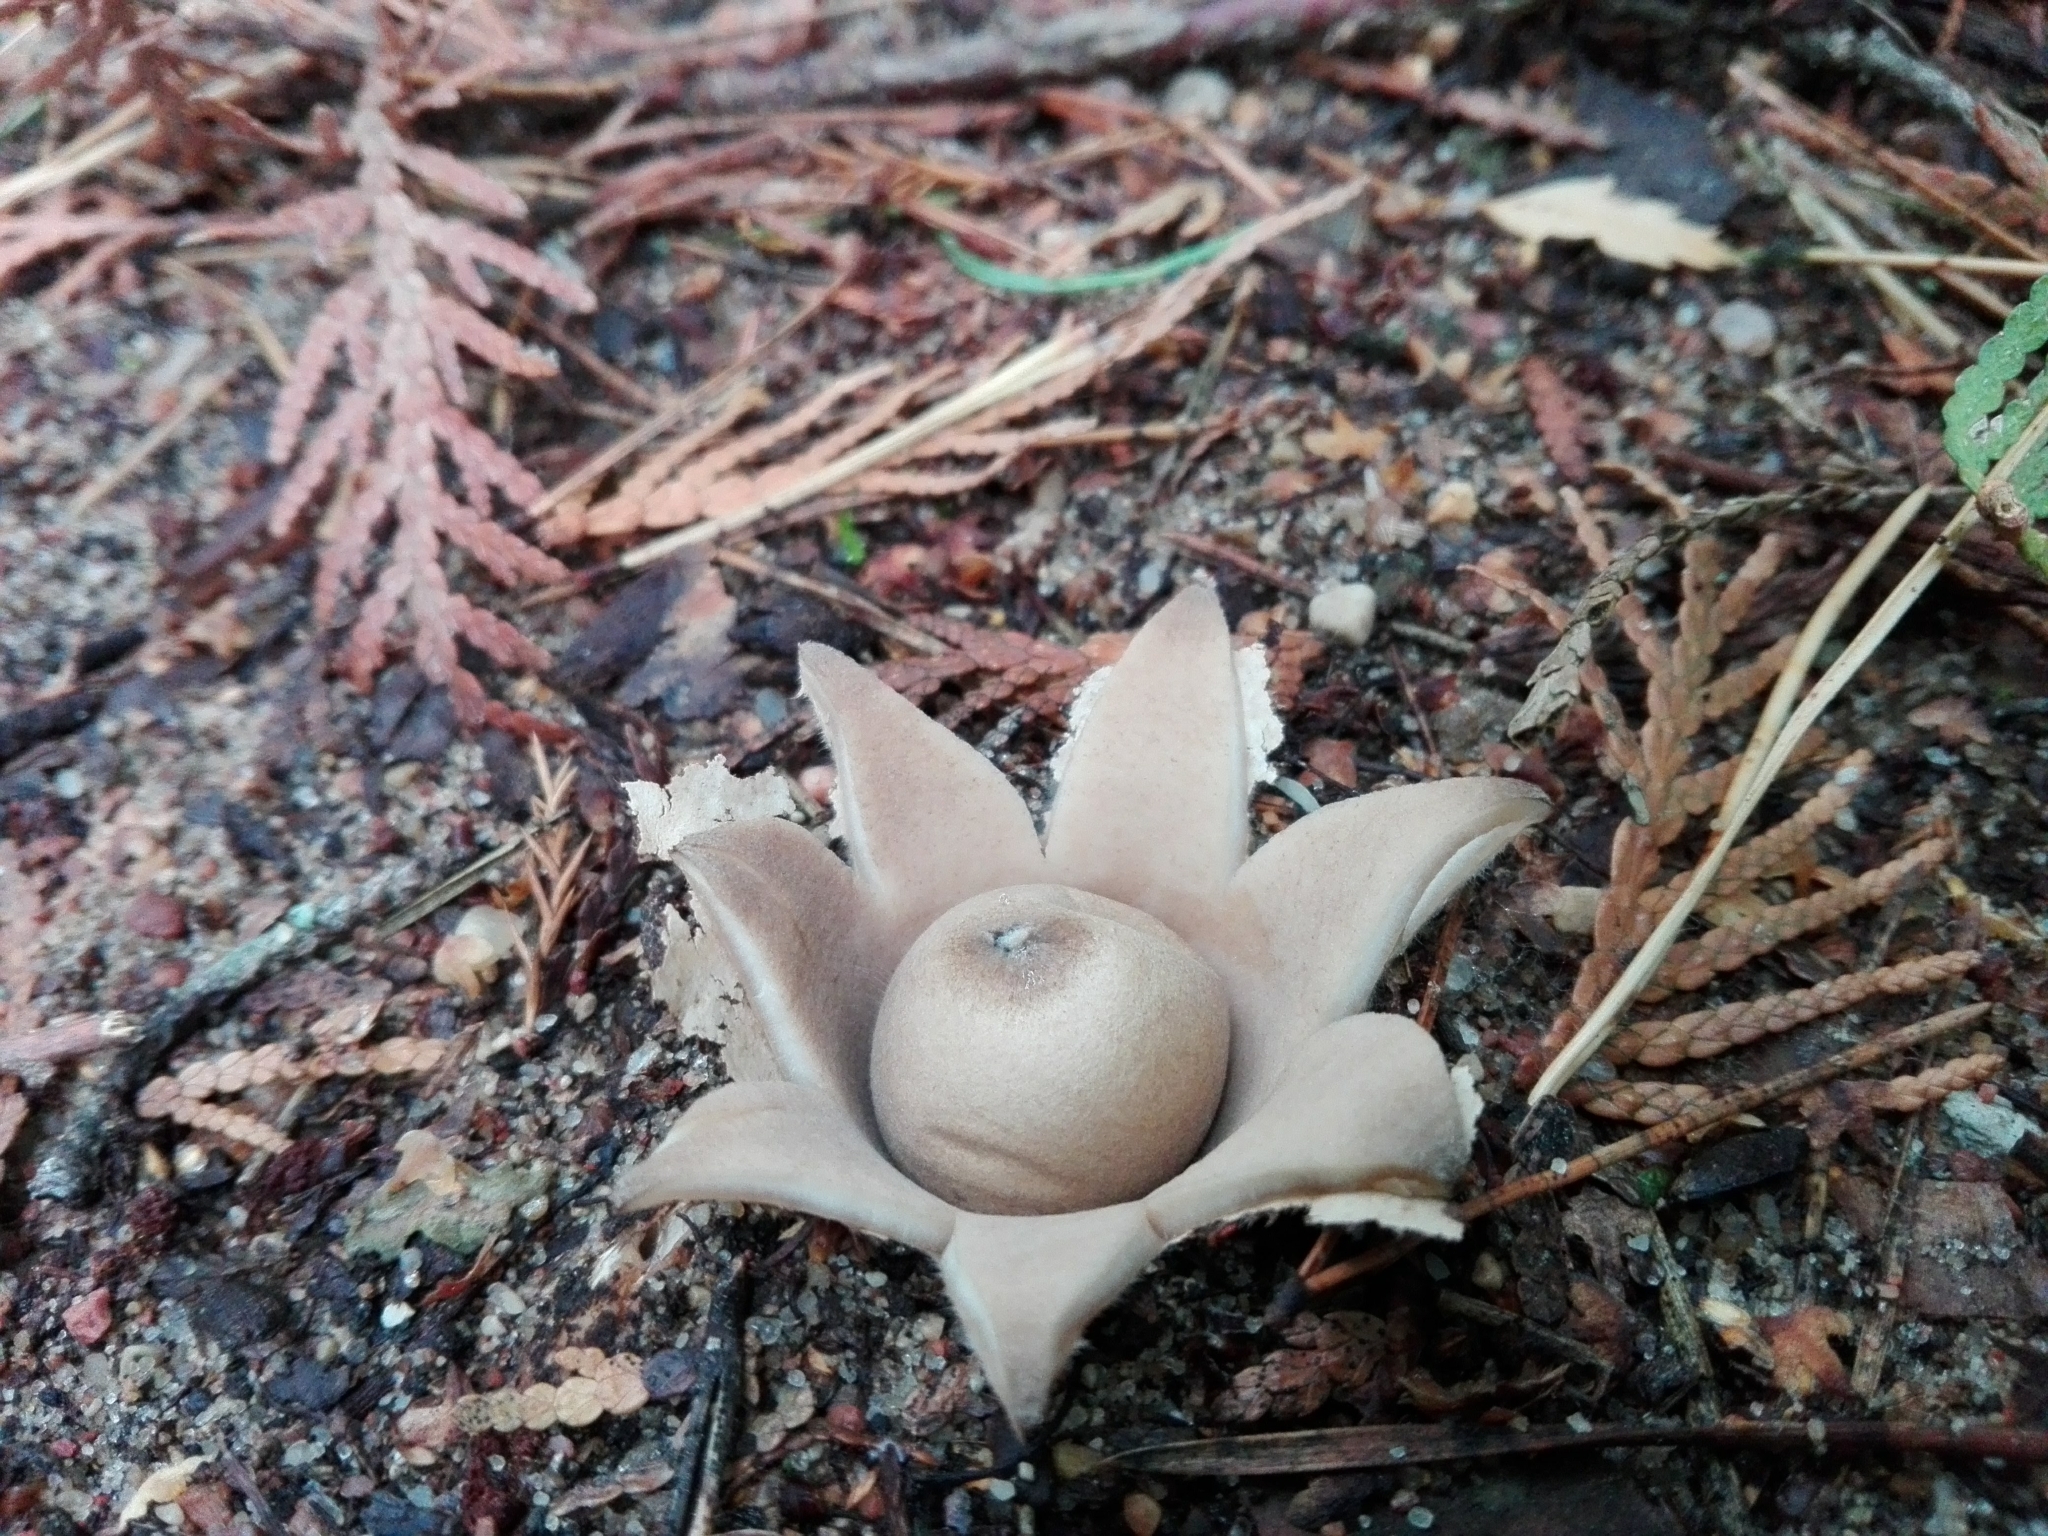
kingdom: Fungi
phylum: Basidiomycota
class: Agaricomycetes
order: Geastrales
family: Geastraceae
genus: Geastrum
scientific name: Geastrum fimbriatum
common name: Sessile earthstar
